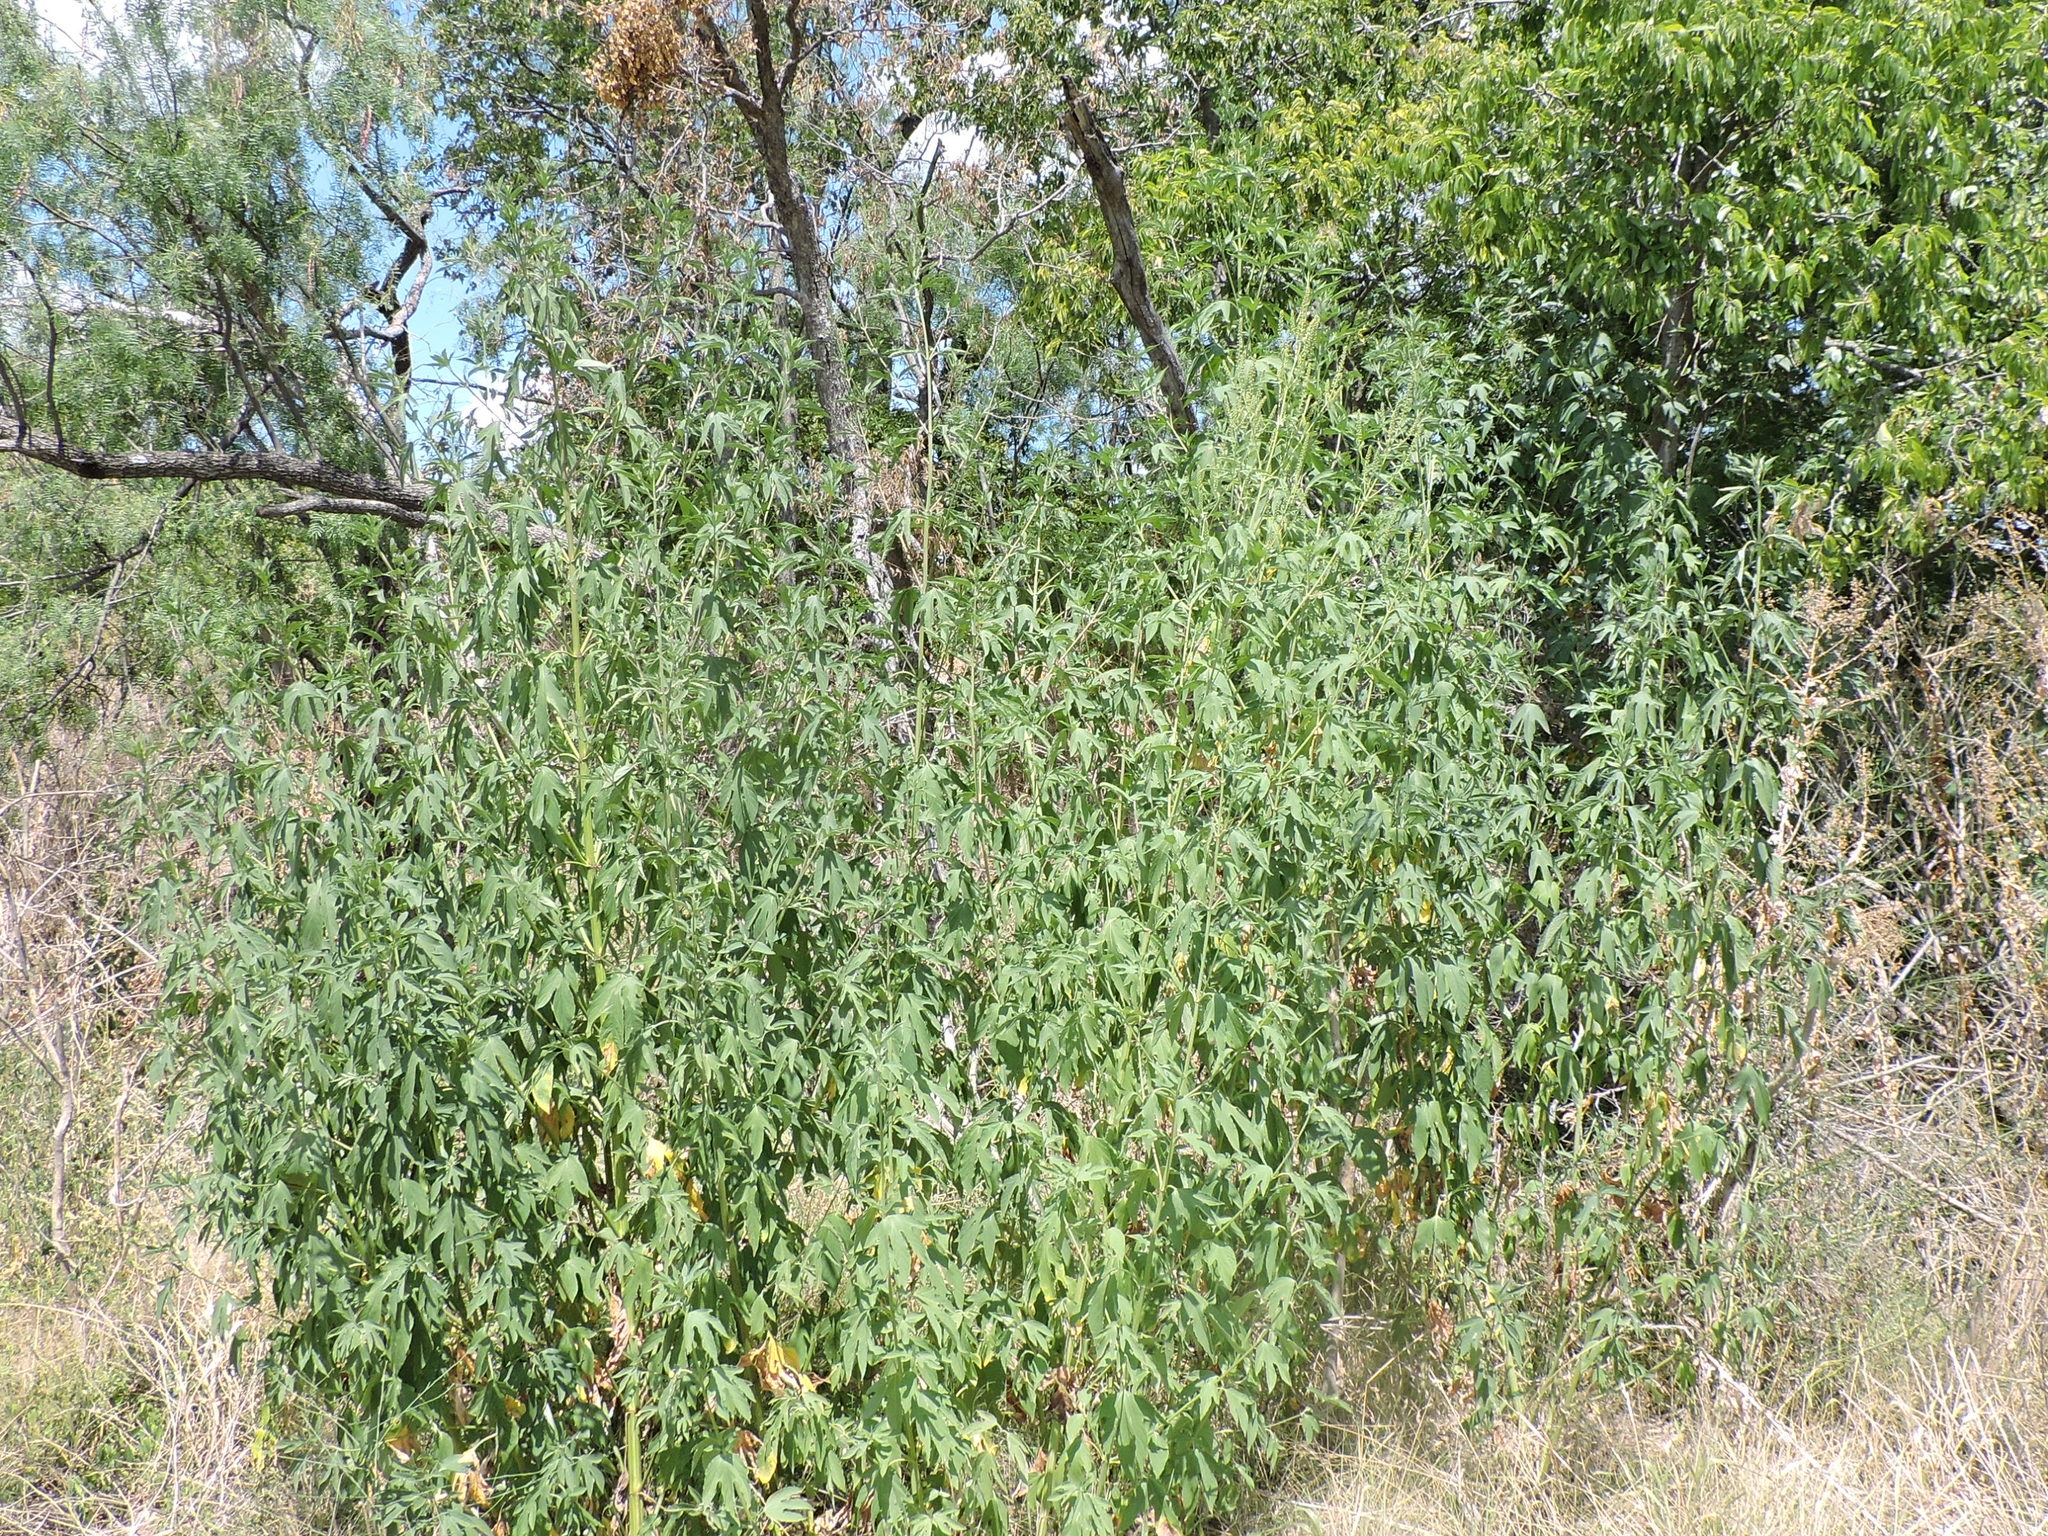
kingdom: Plantae
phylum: Tracheophyta
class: Magnoliopsida
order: Asterales
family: Asteraceae
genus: Ambrosia
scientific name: Ambrosia trifida
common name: Giant ragweed
